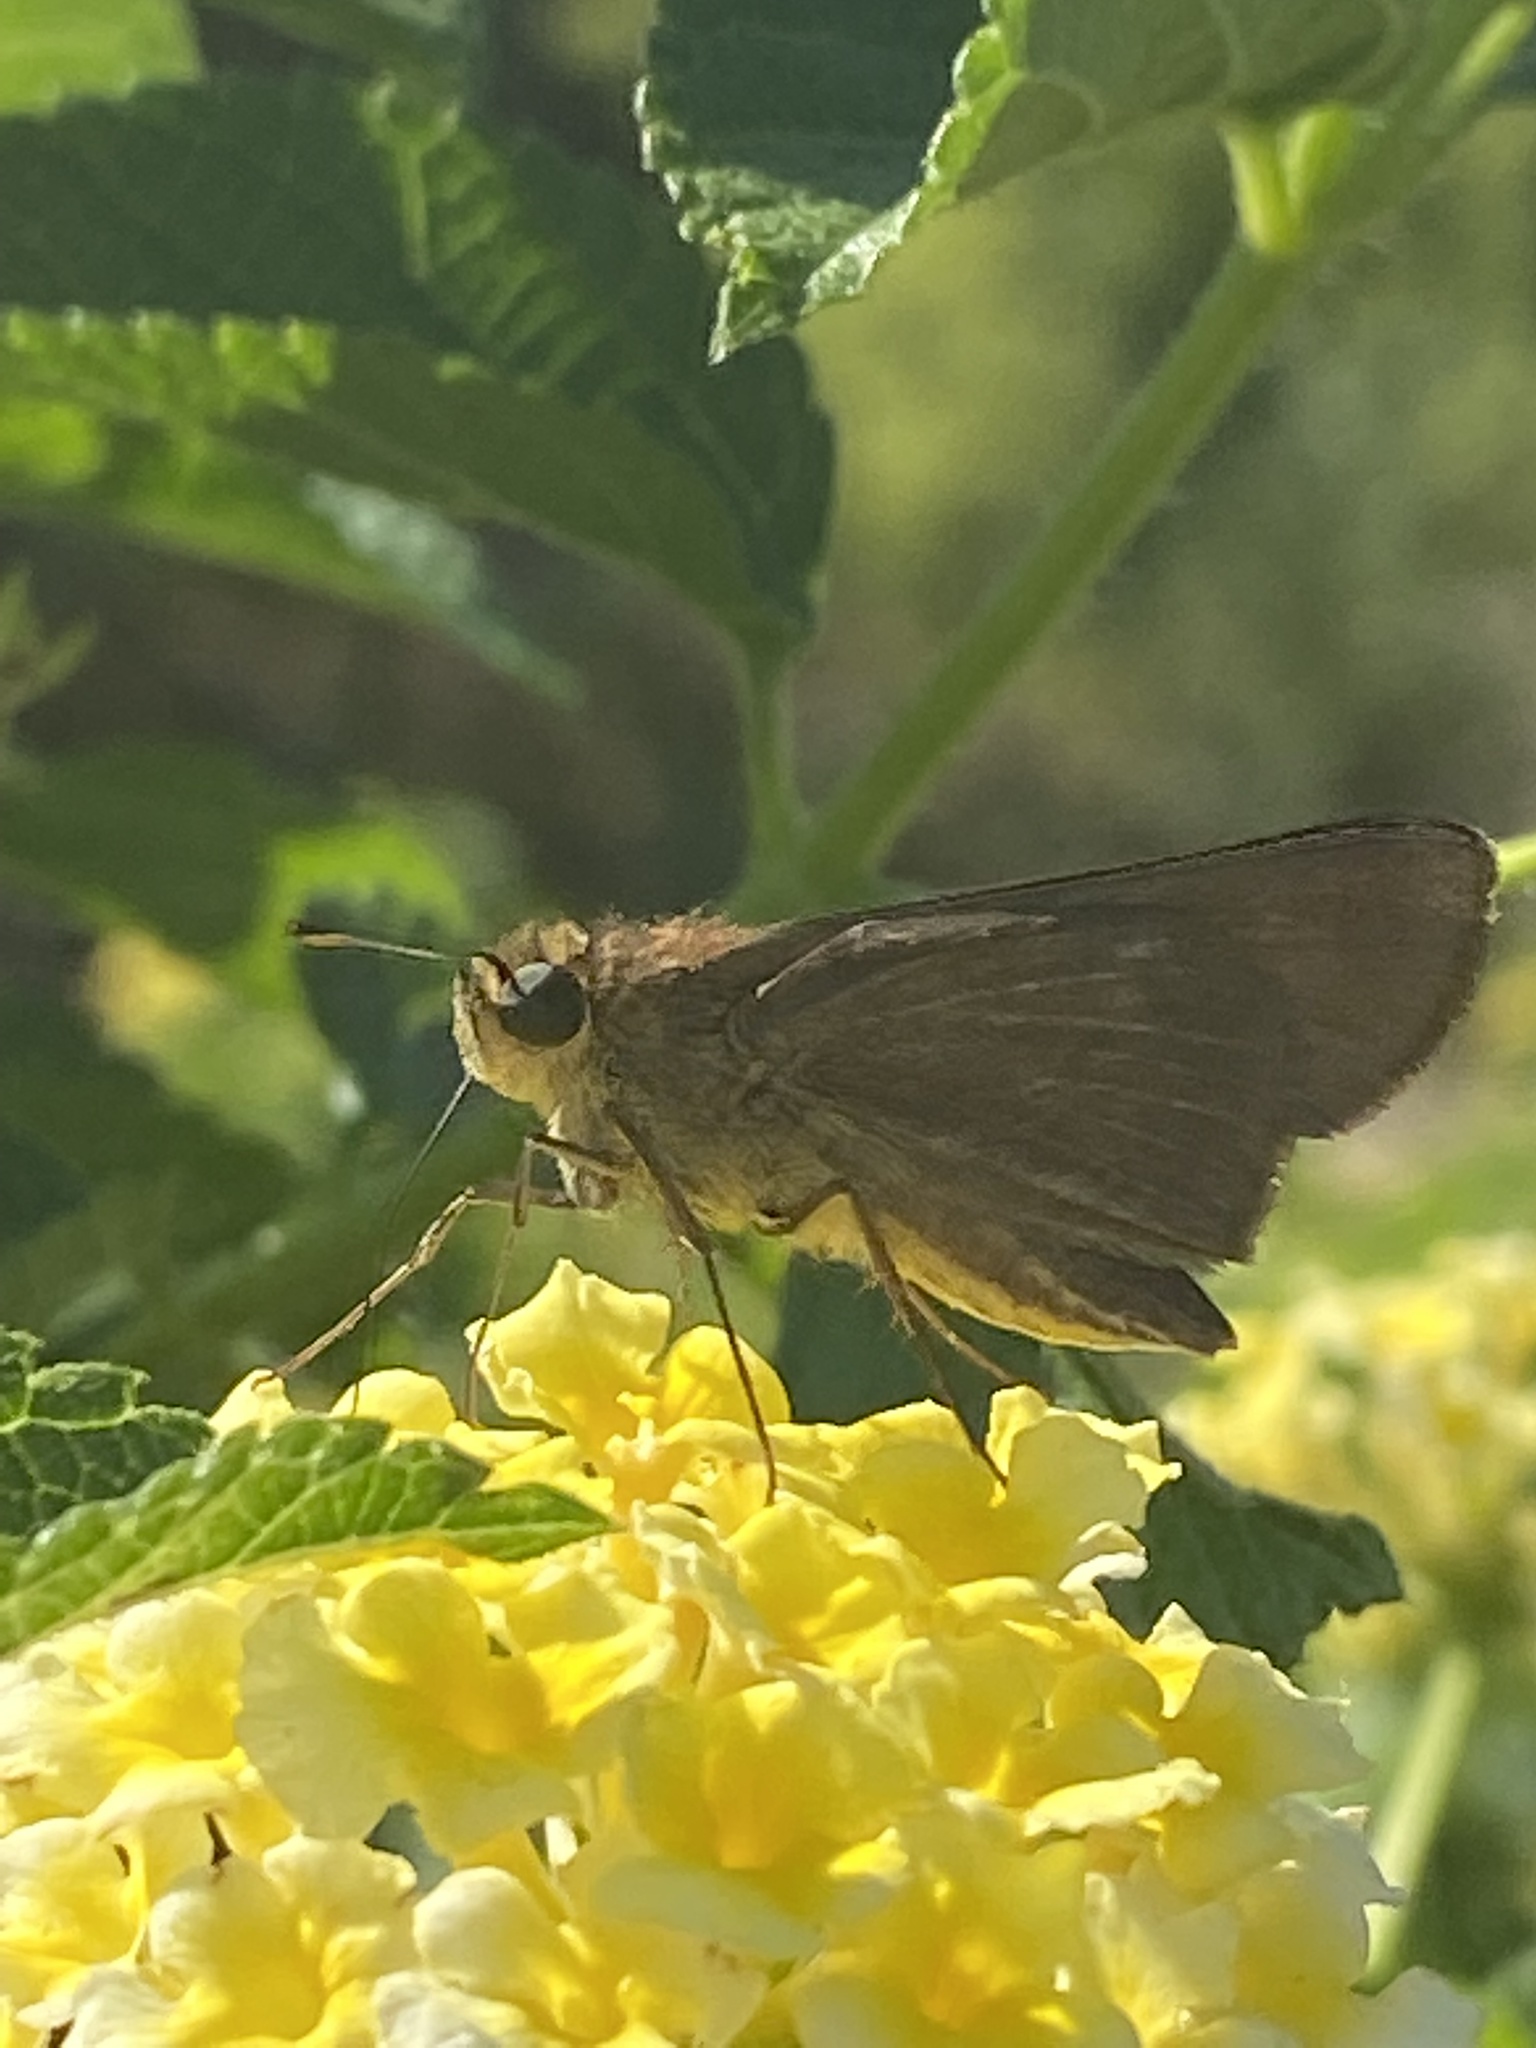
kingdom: Animalia
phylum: Arthropoda
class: Insecta
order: Lepidoptera
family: Hesperiidae
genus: Panoquina
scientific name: Panoquina ocola
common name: Ocola skipper
